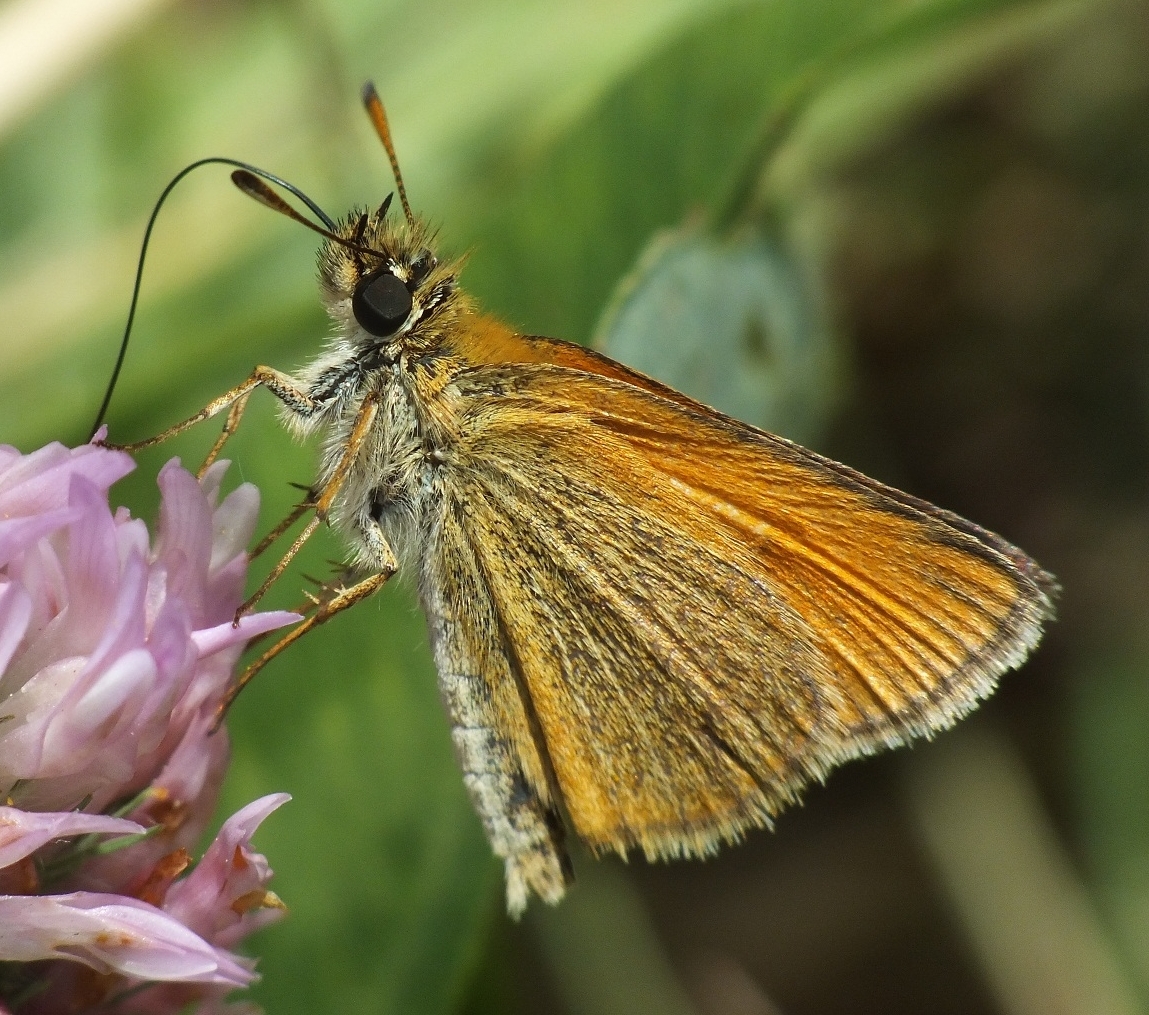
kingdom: Animalia
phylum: Arthropoda
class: Insecta
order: Lepidoptera
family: Hesperiidae
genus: Thymelicus
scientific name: Thymelicus lineola
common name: Essex skipper
